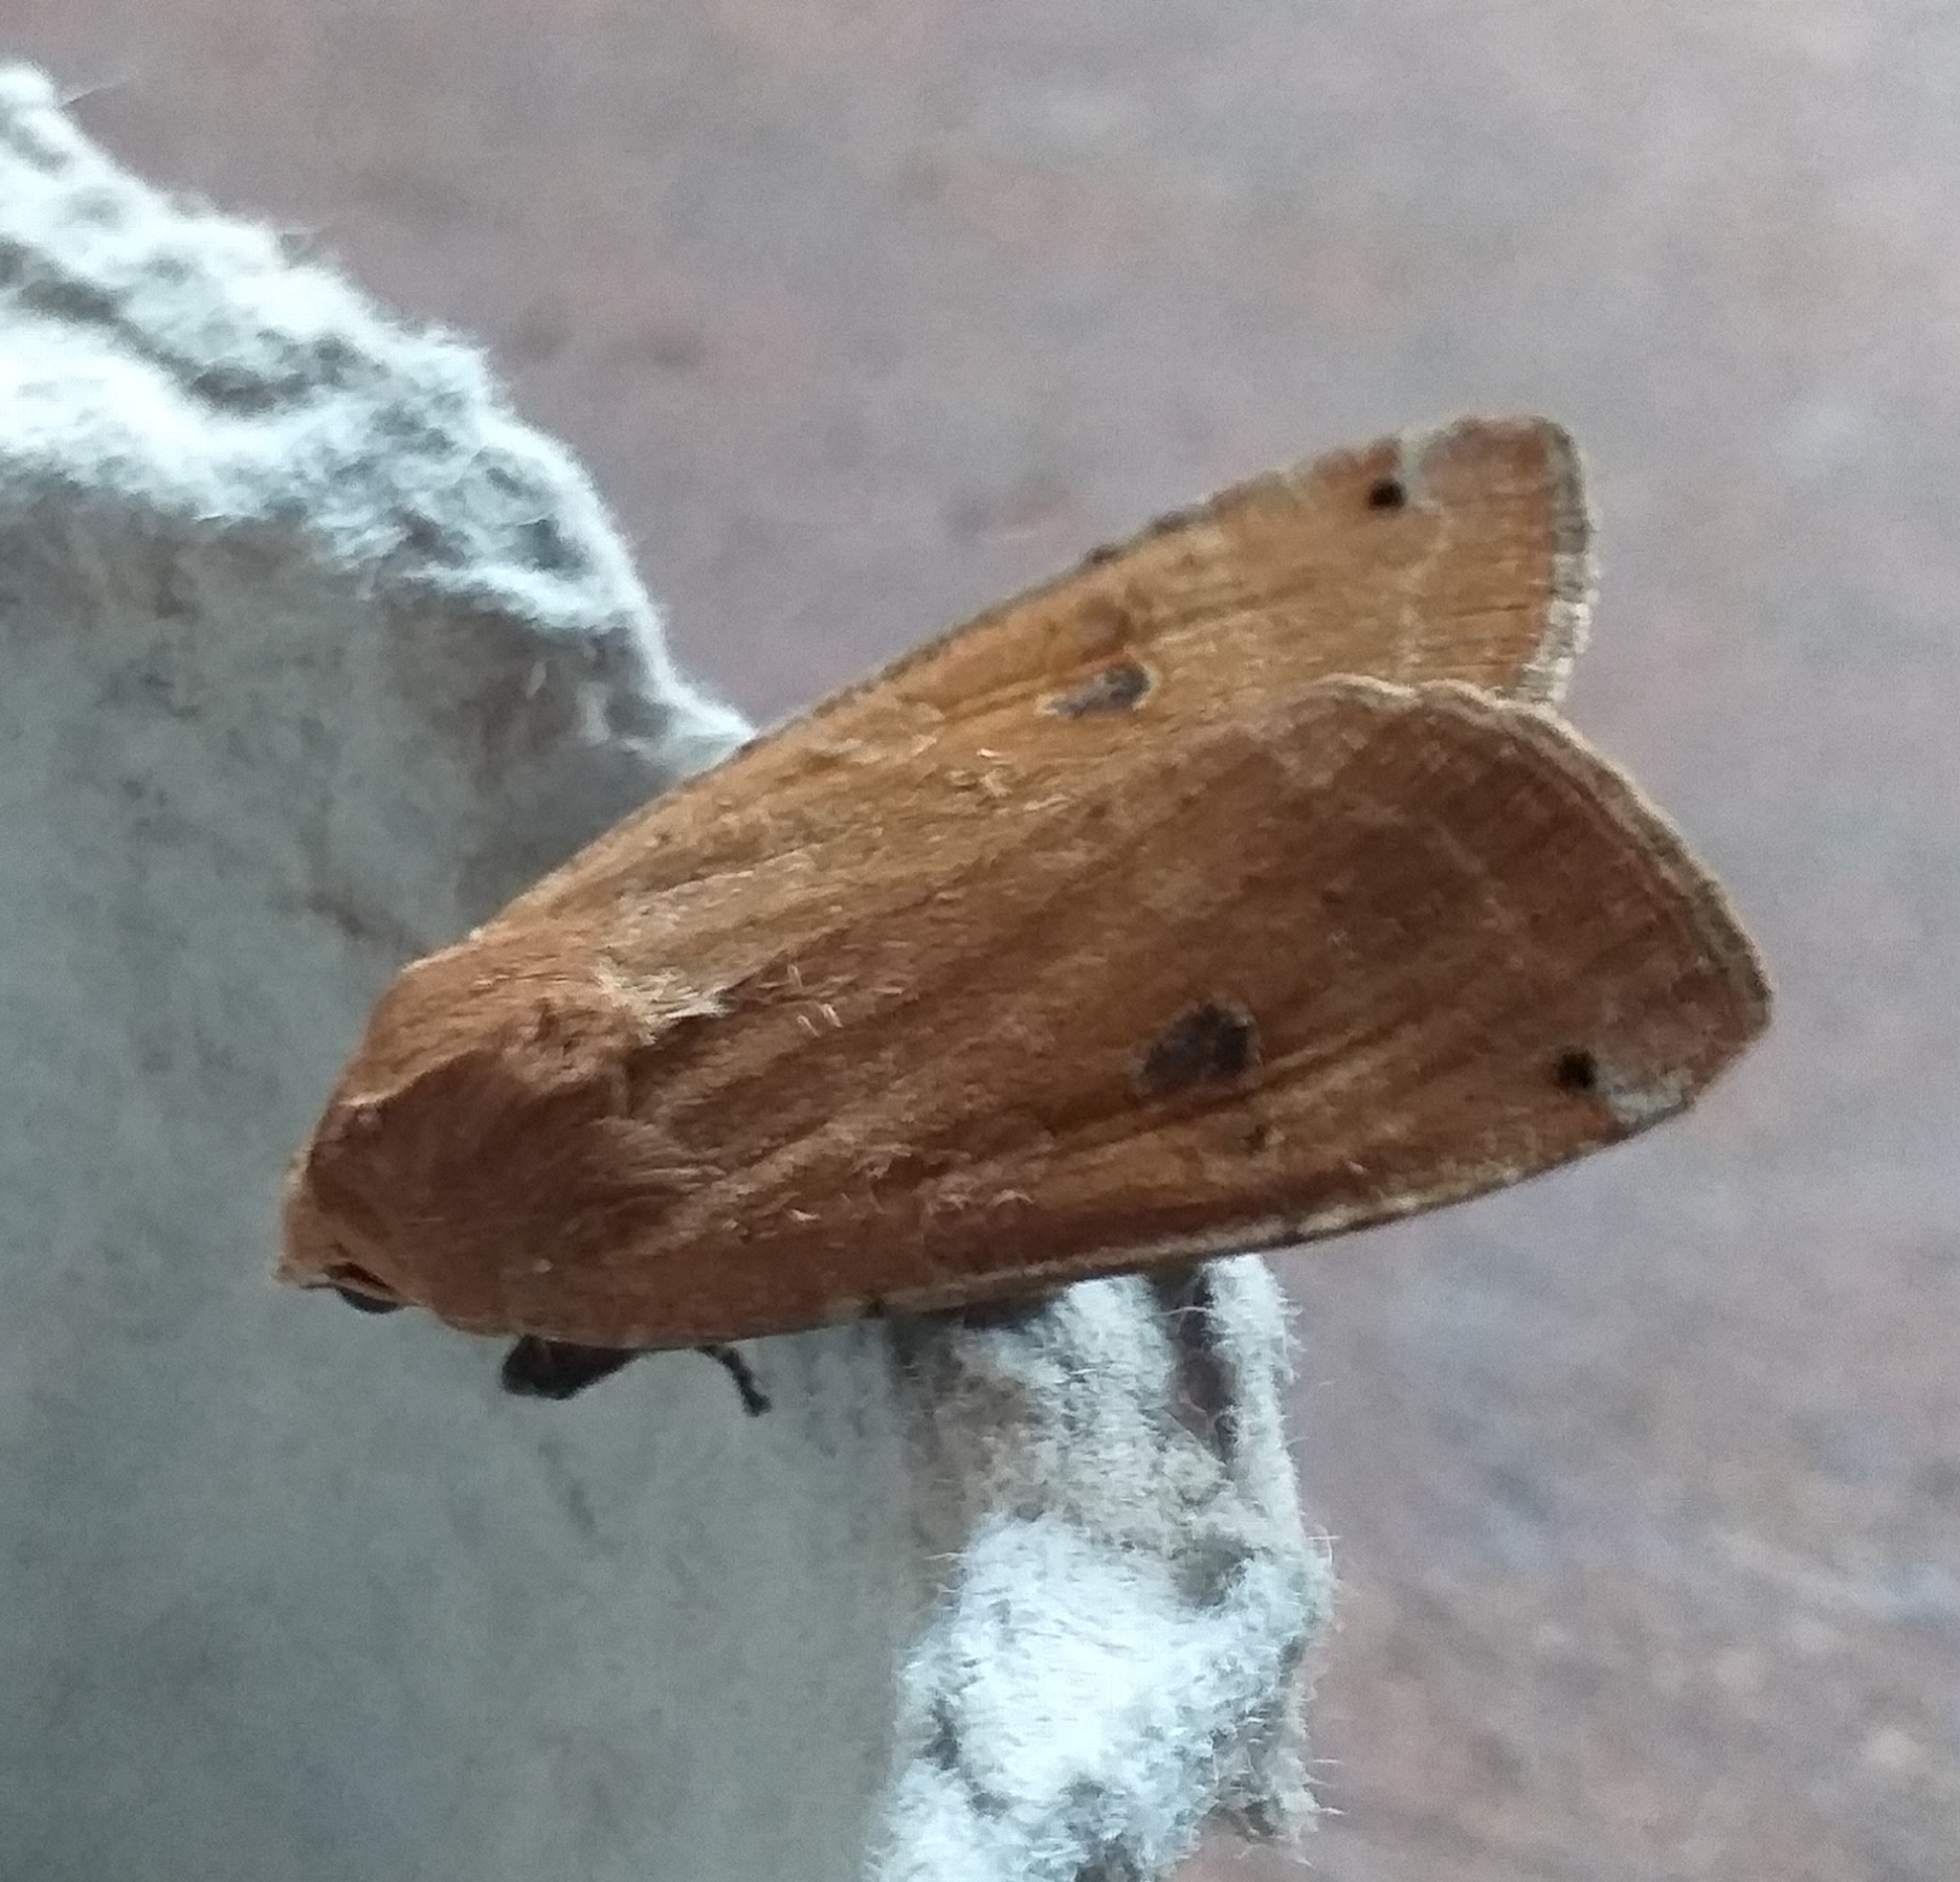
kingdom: Animalia
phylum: Arthropoda
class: Insecta
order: Lepidoptera
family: Noctuidae
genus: Noctua
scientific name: Noctua pronuba
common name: Large yellow underwing
